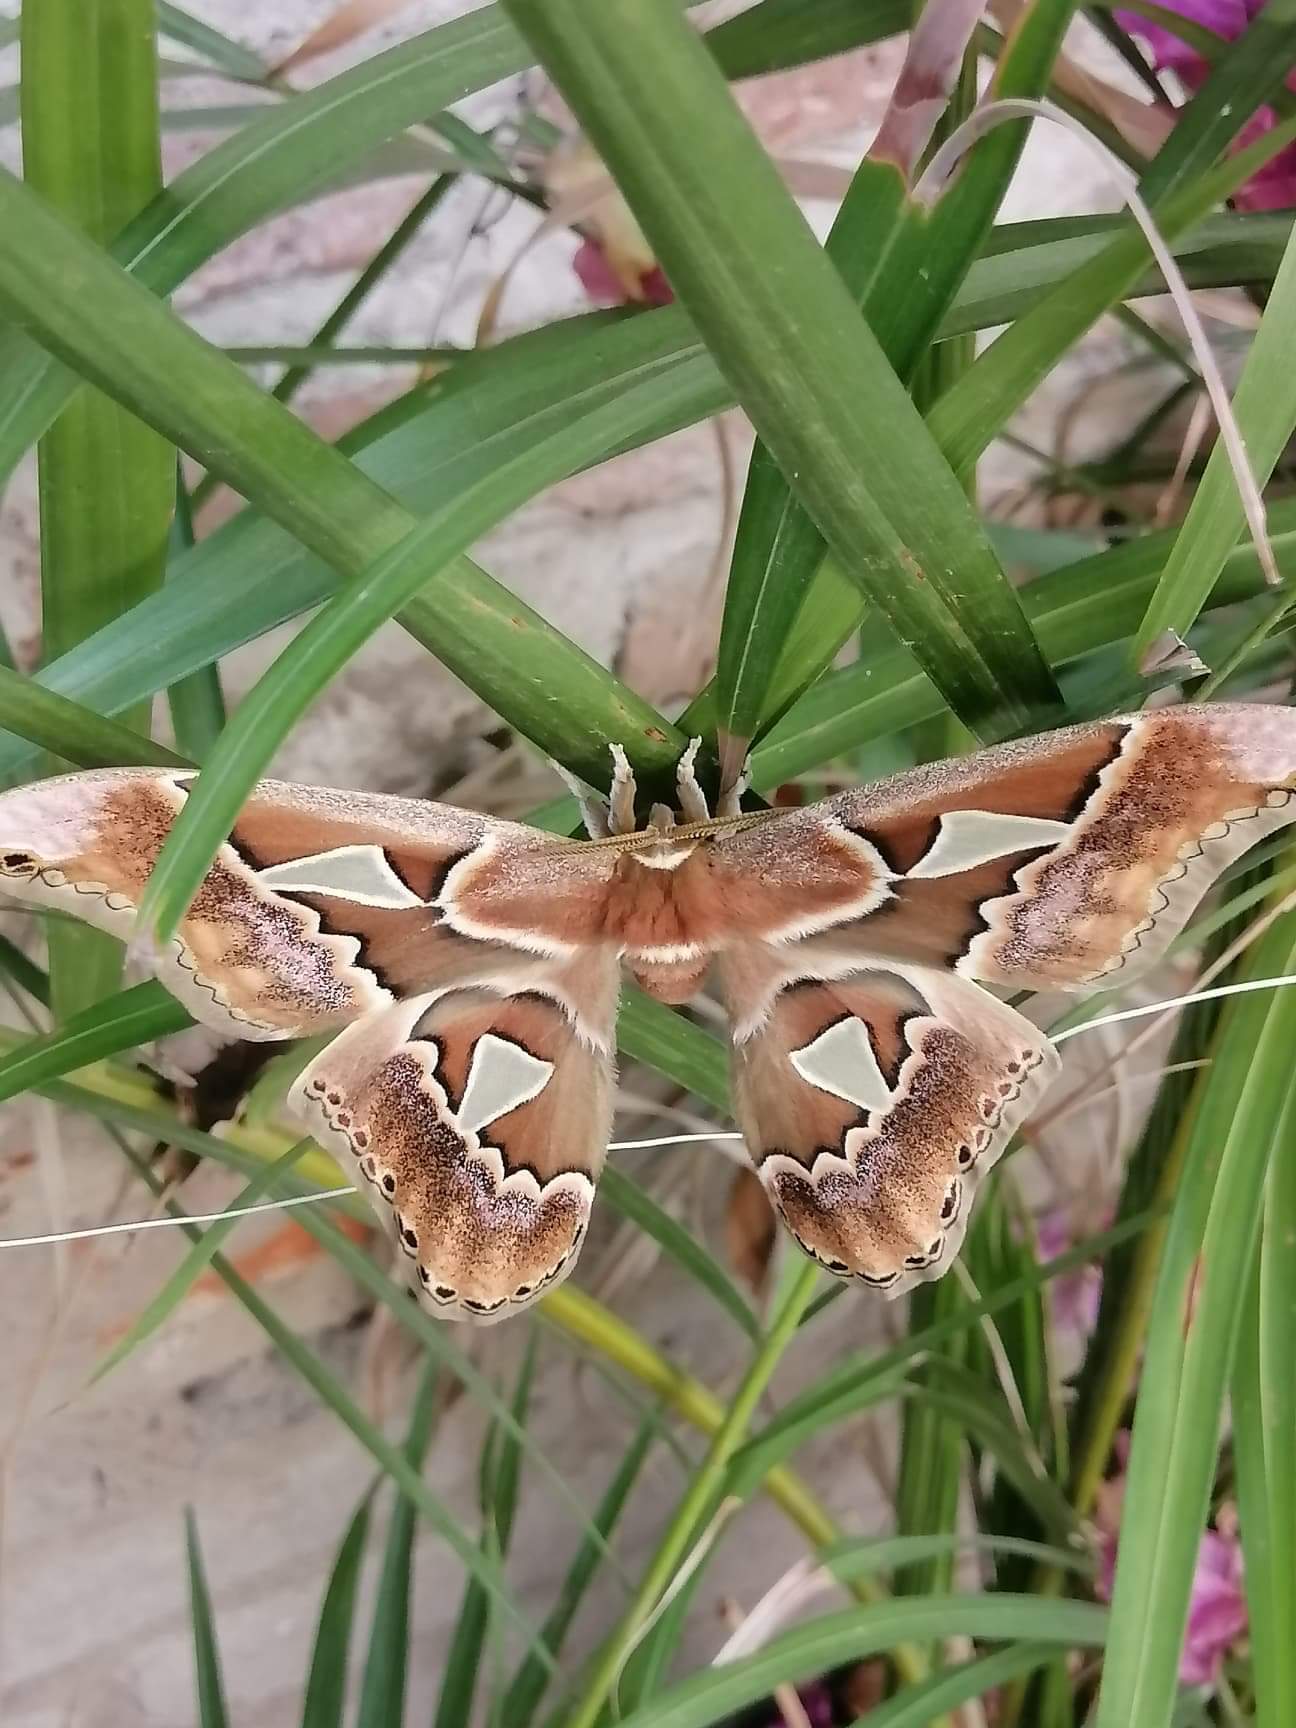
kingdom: Animalia
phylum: Arthropoda
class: Insecta
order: Lepidoptera
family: Saturniidae
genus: Rothschildia
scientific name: Rothschildia orizaba
